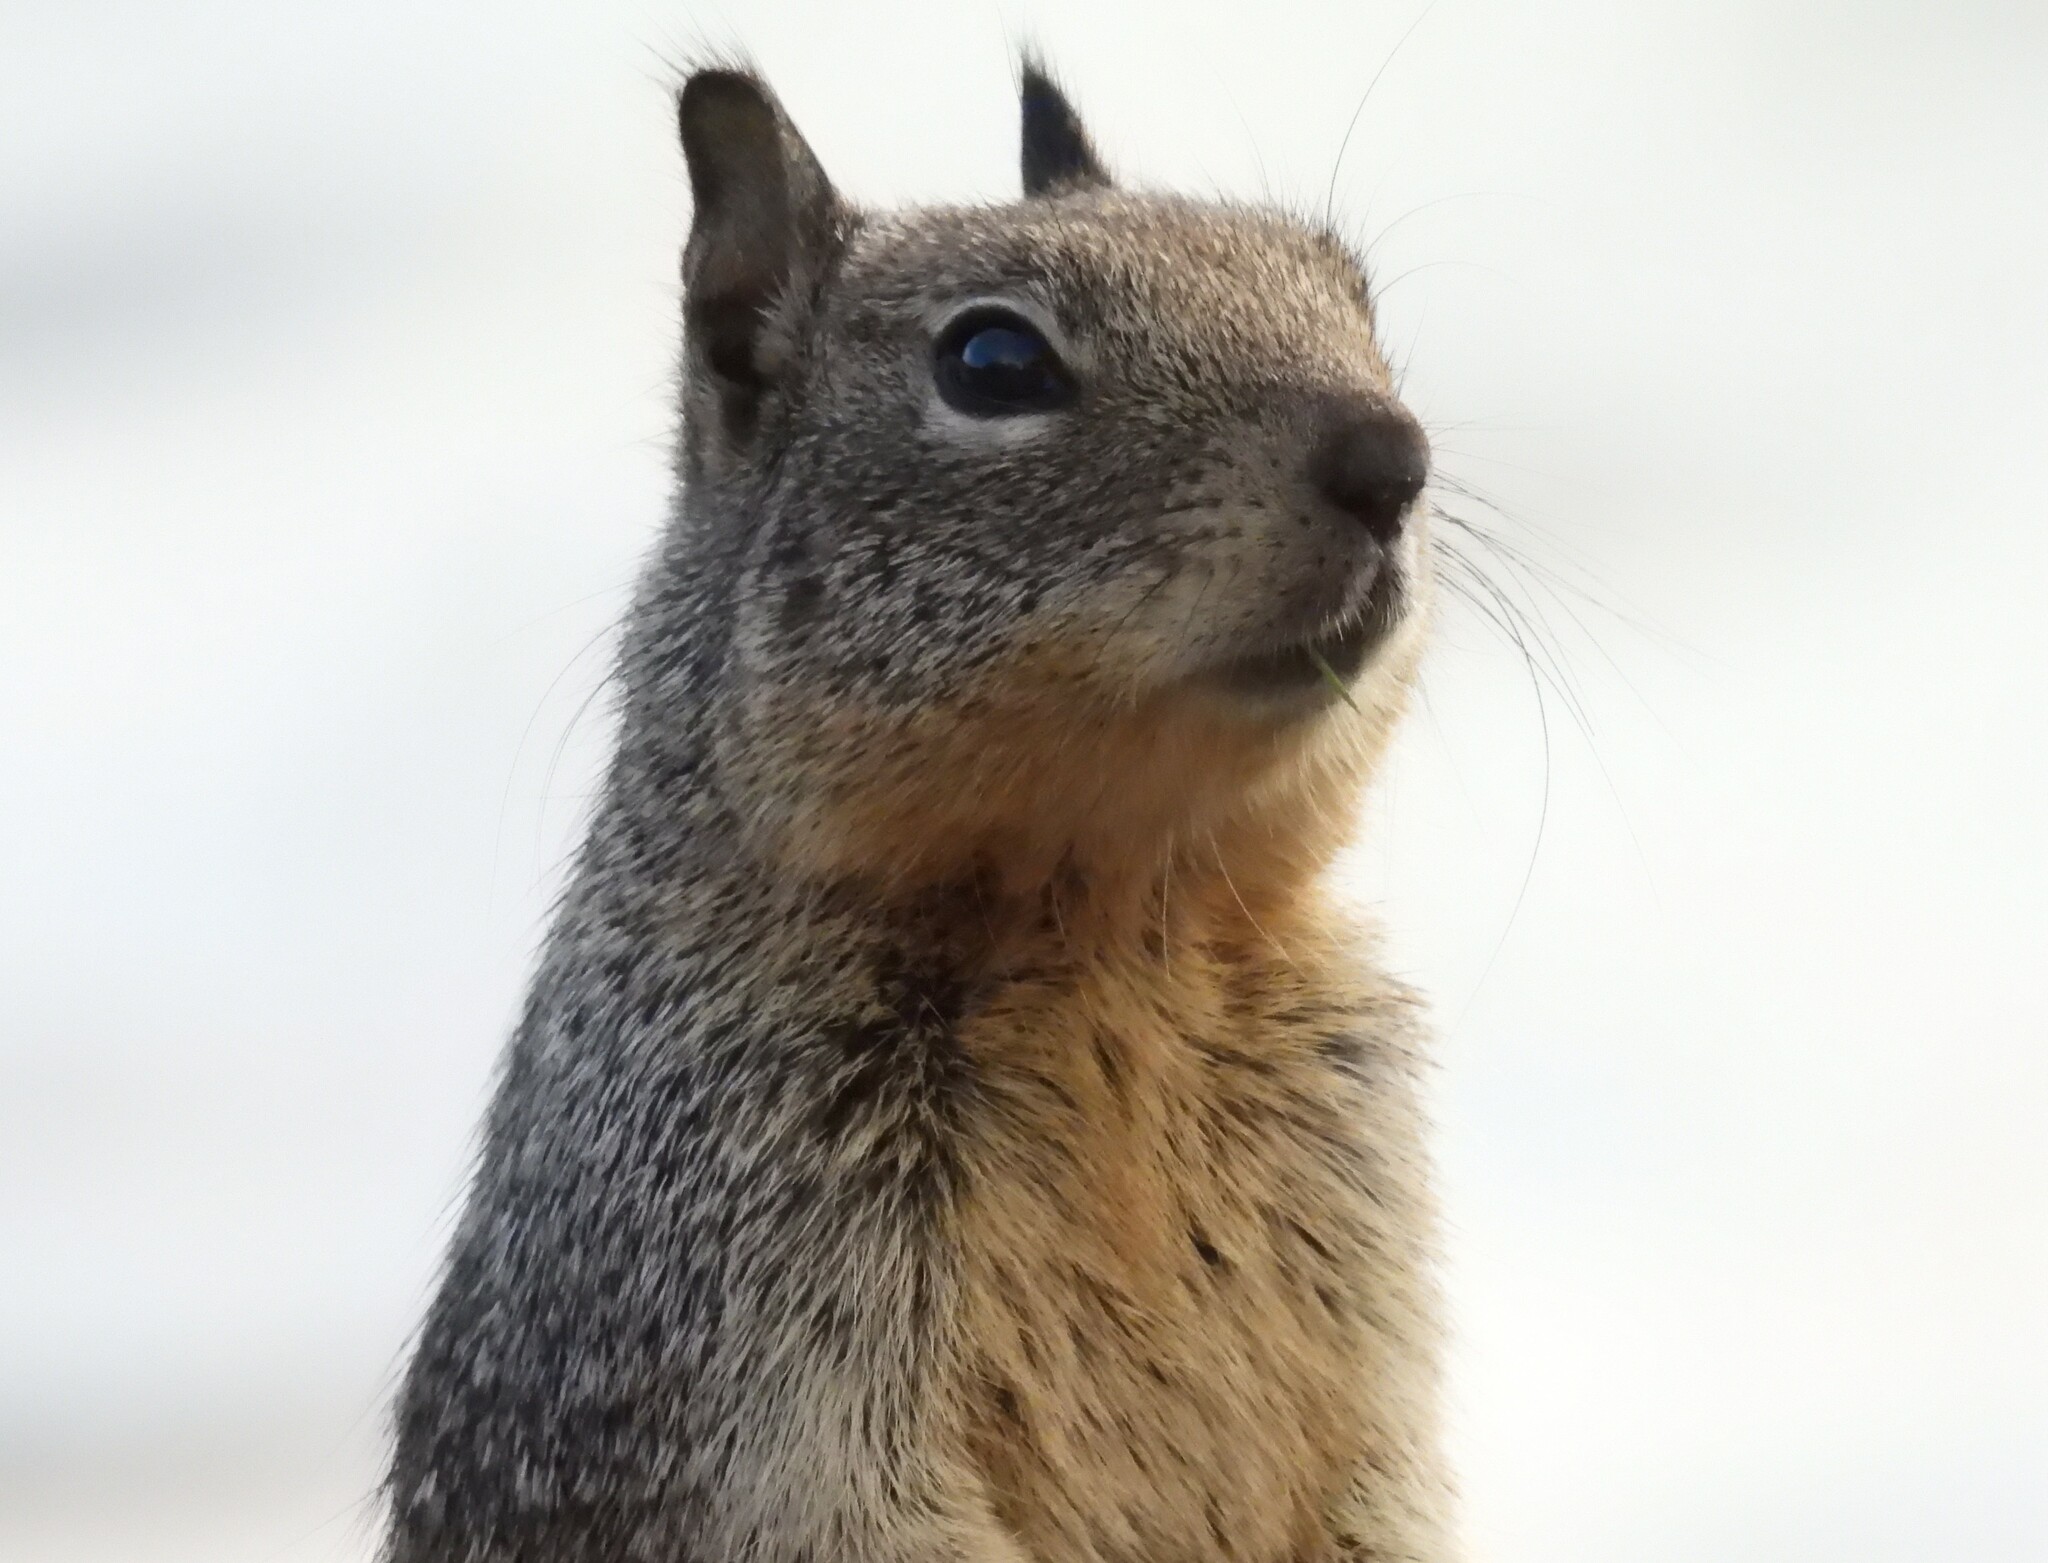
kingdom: Animalia
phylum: Chordata
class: Mammalia
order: Rodentia
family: Sciuridae
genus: Otospermophilus
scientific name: Otospermophilus beecheyi
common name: California ground squirrel
